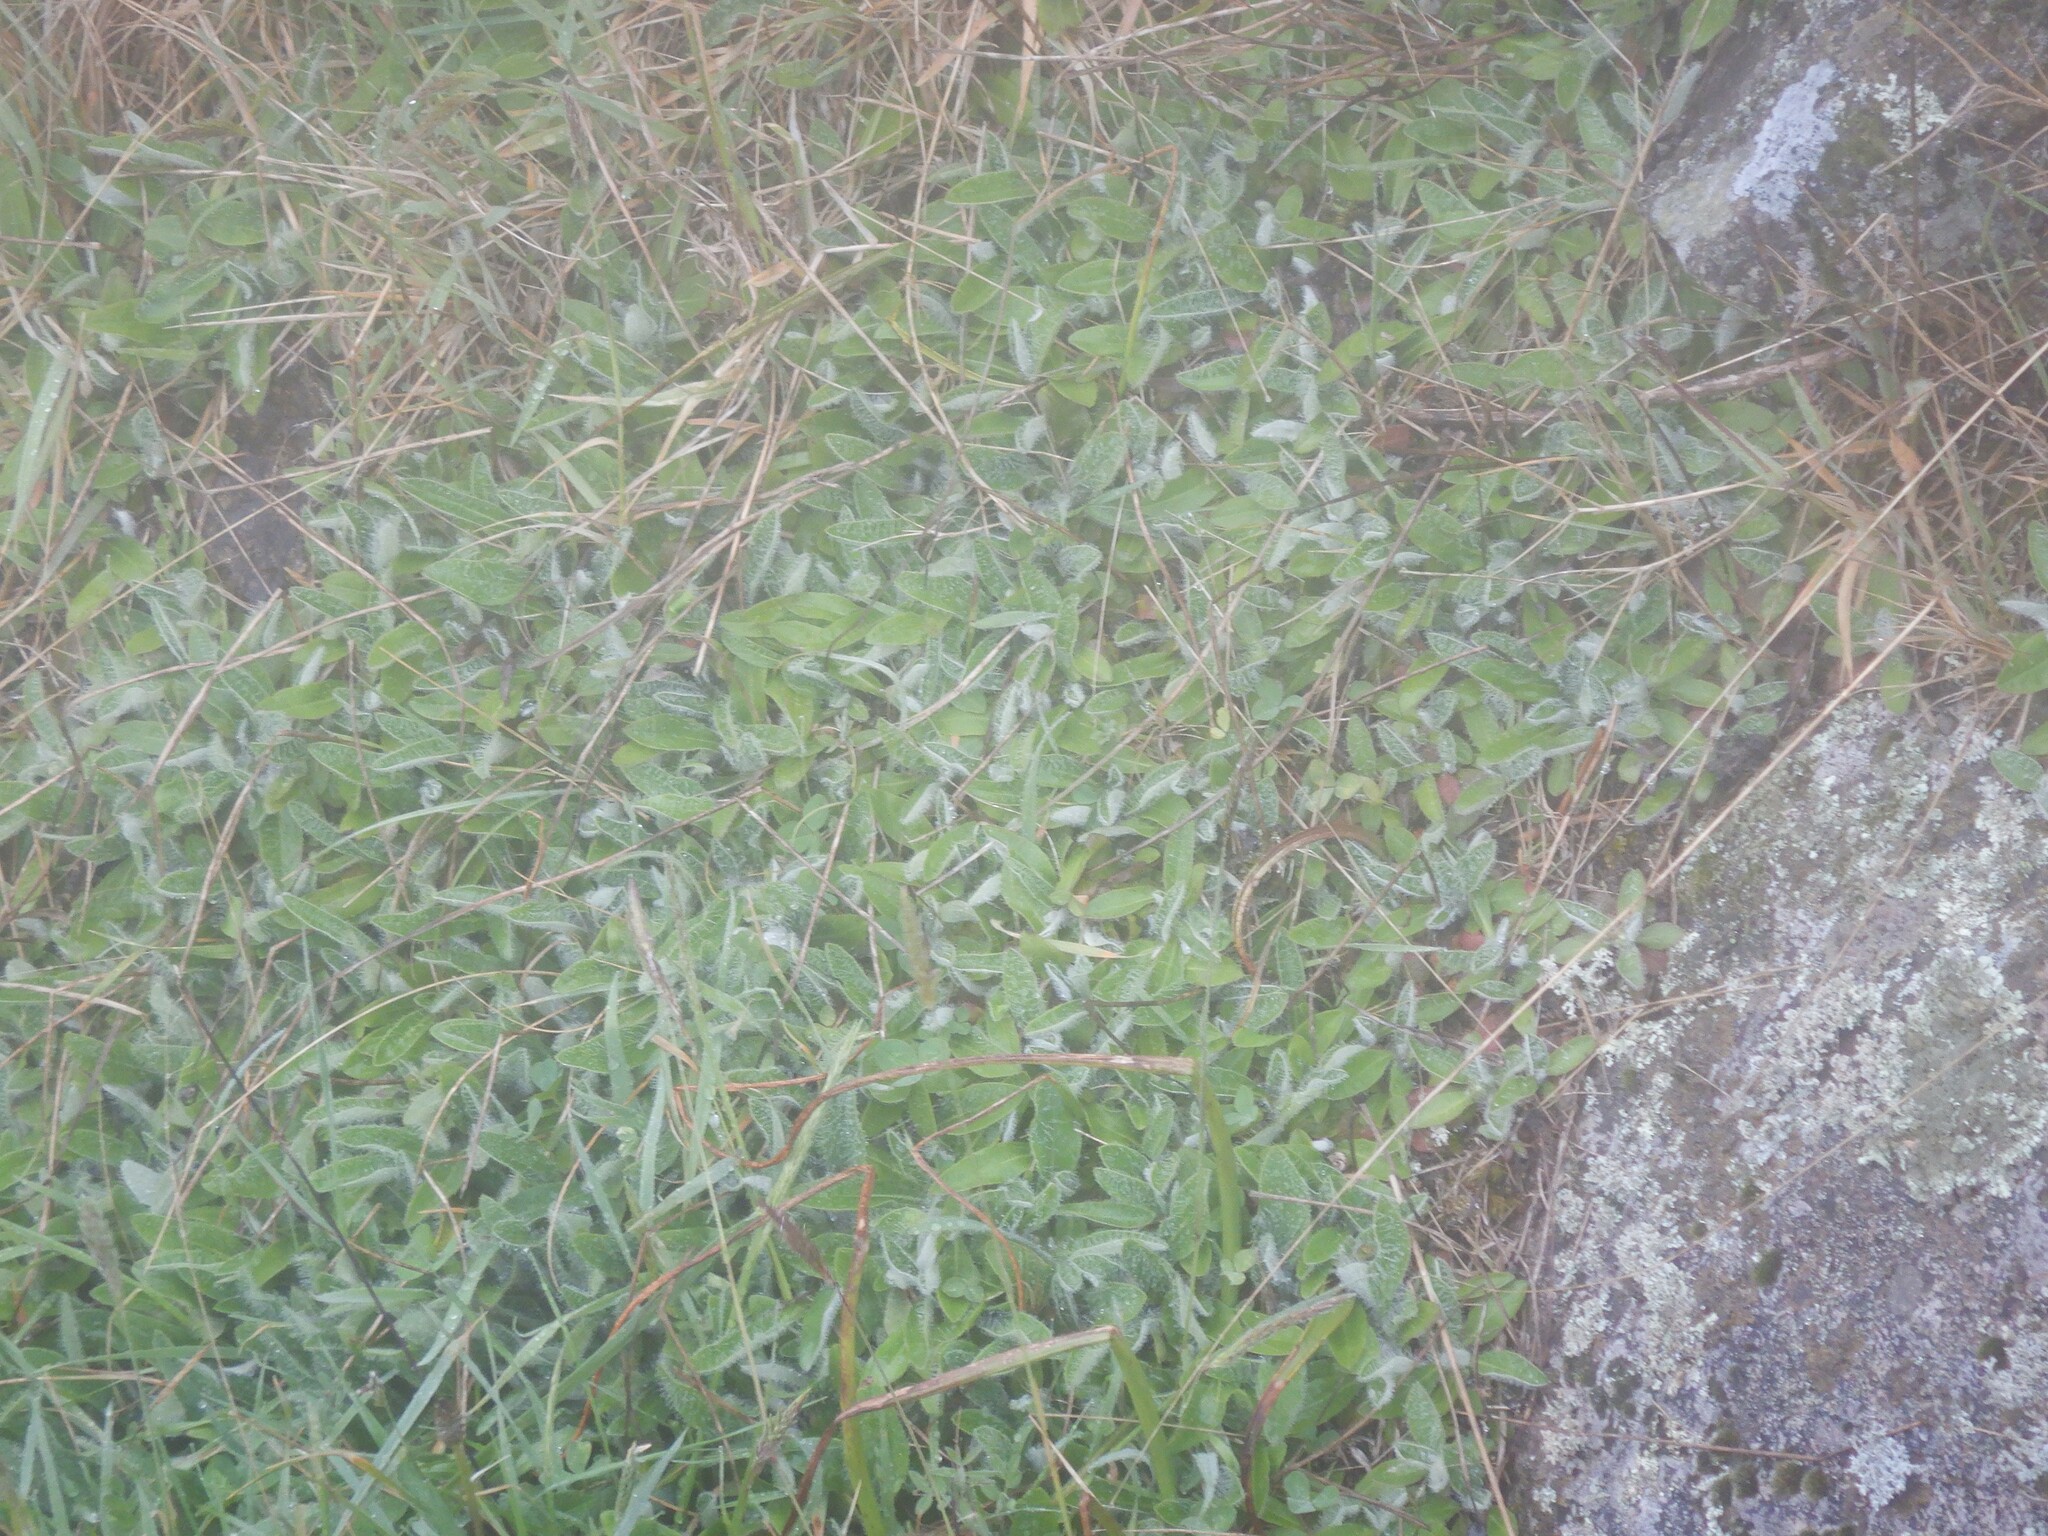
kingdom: Plantae
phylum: Tracheophyta
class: Magnoliopsida
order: Asterales
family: Asteraceae
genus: Pilosella
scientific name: Pilosella officinarum
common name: Mouse-ear hawkweed
